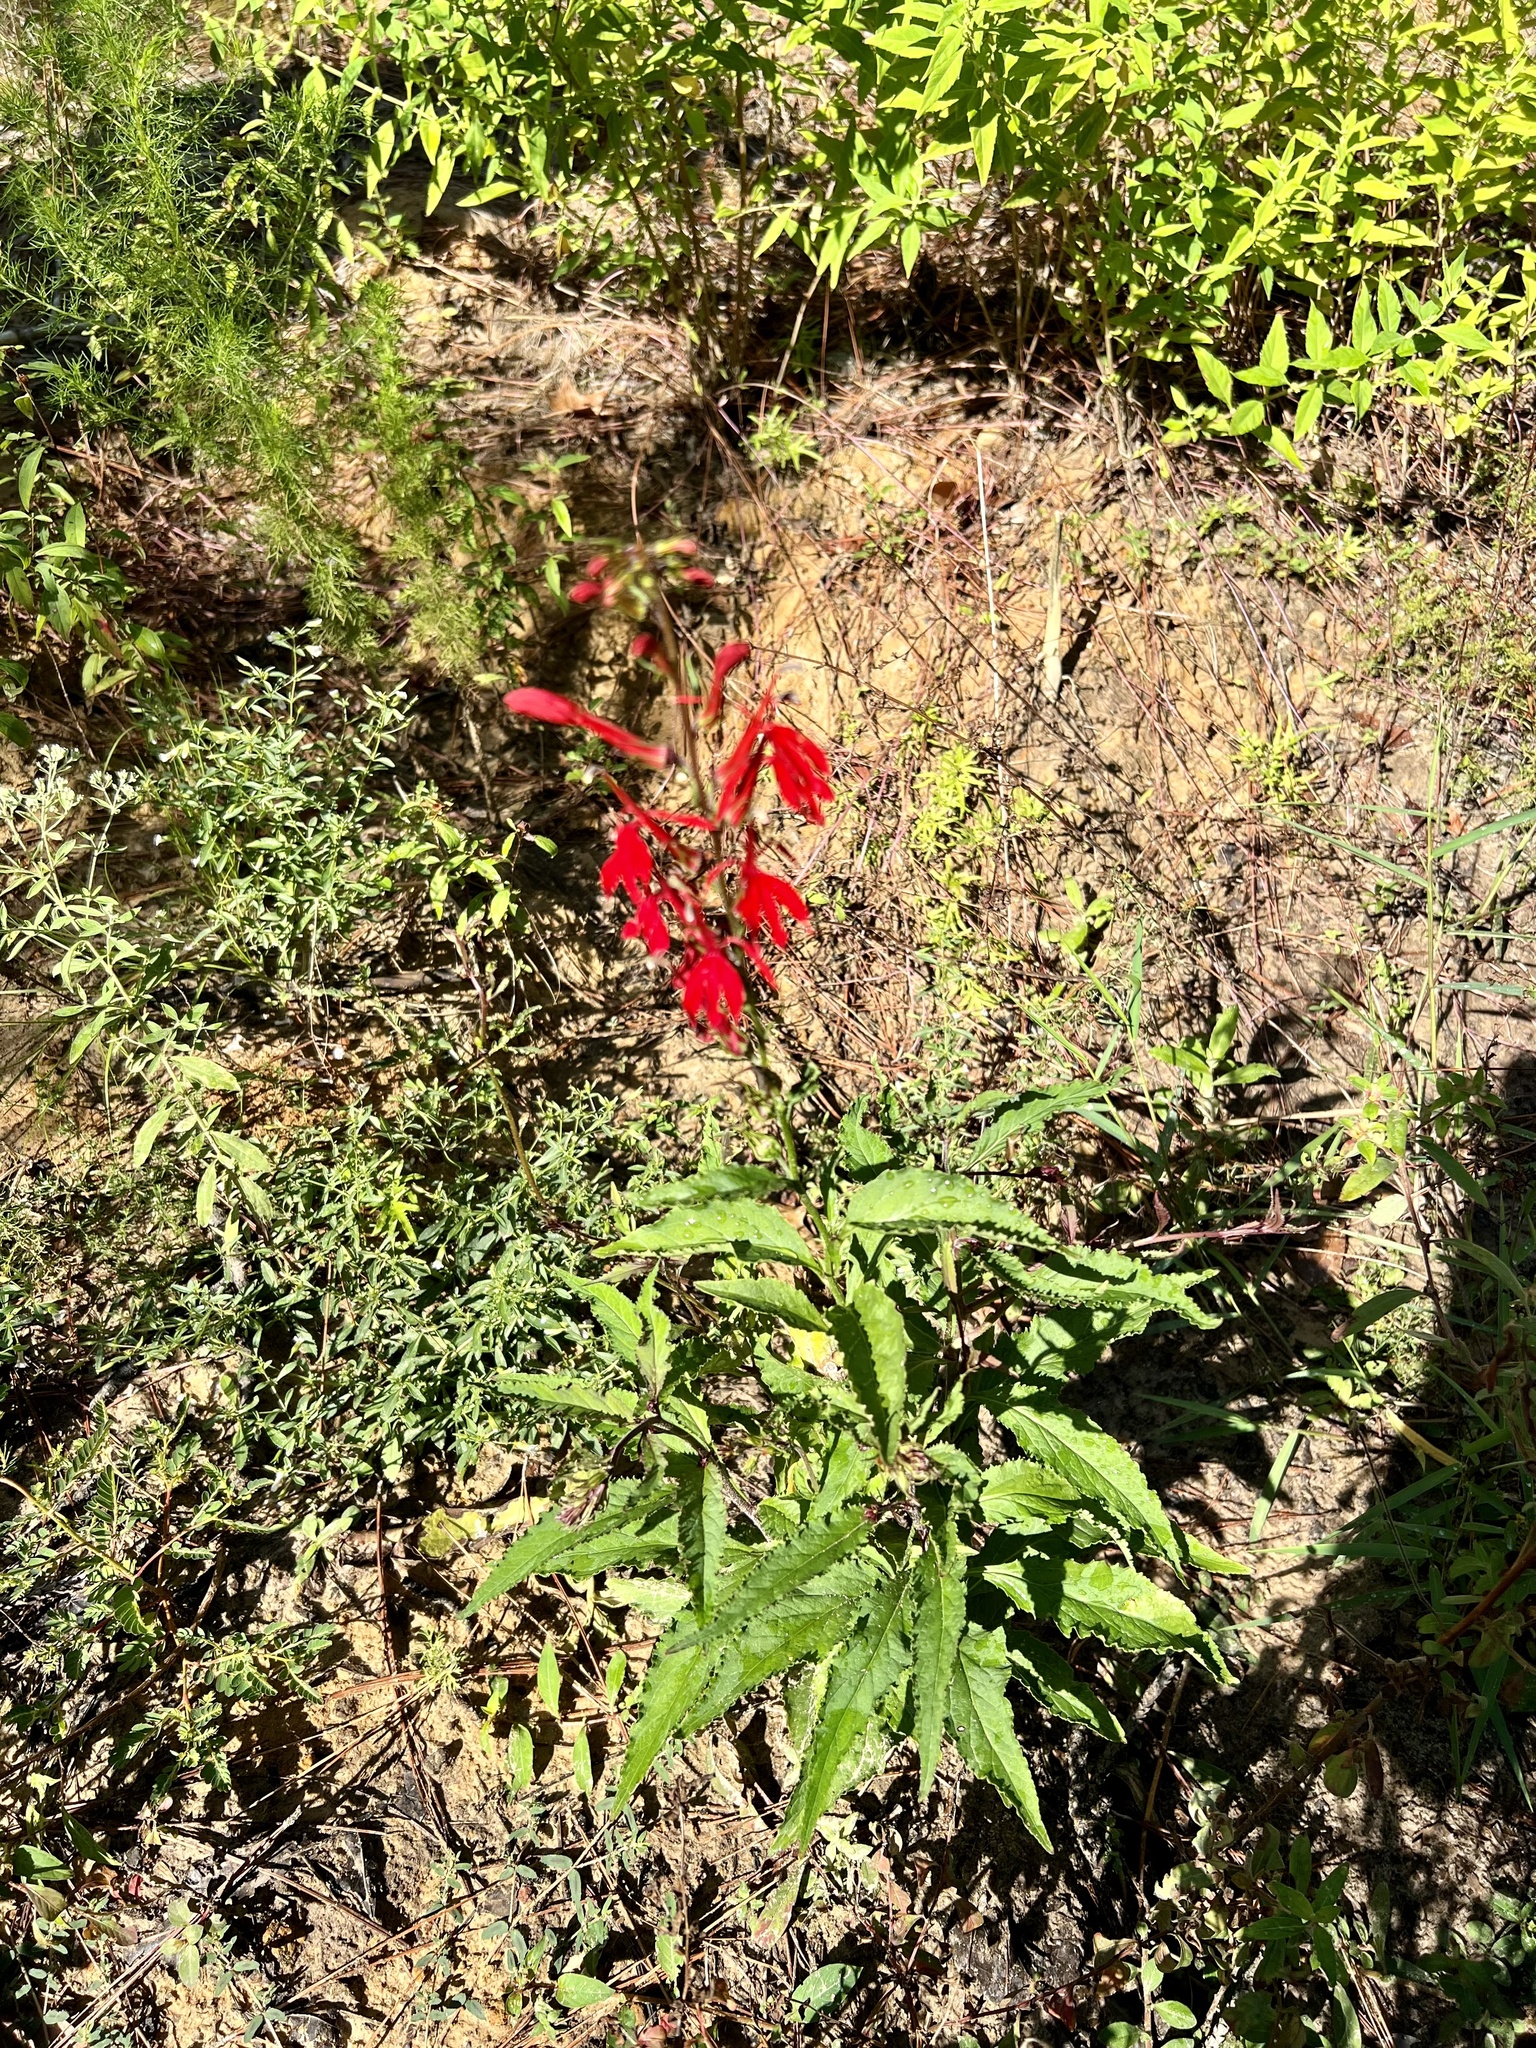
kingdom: Plantae
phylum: Tracheophyta
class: Magnoliopsida
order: Asterales
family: Campanulaceae
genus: Lobelia
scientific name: Lobelia cardinalis
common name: Cardinal flower
